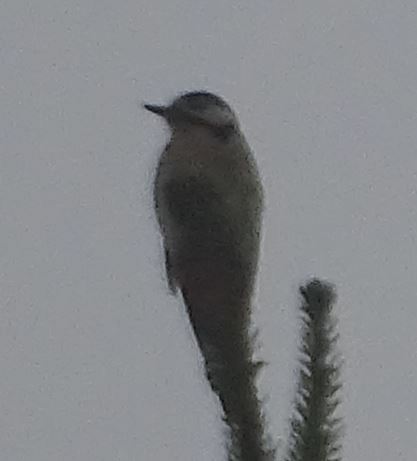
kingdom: Animalia
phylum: Chordata
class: Aves
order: Piciformes
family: Picidae
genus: Dendrocopos
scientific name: Dendrocopos major
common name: Great spotted woodpecker
